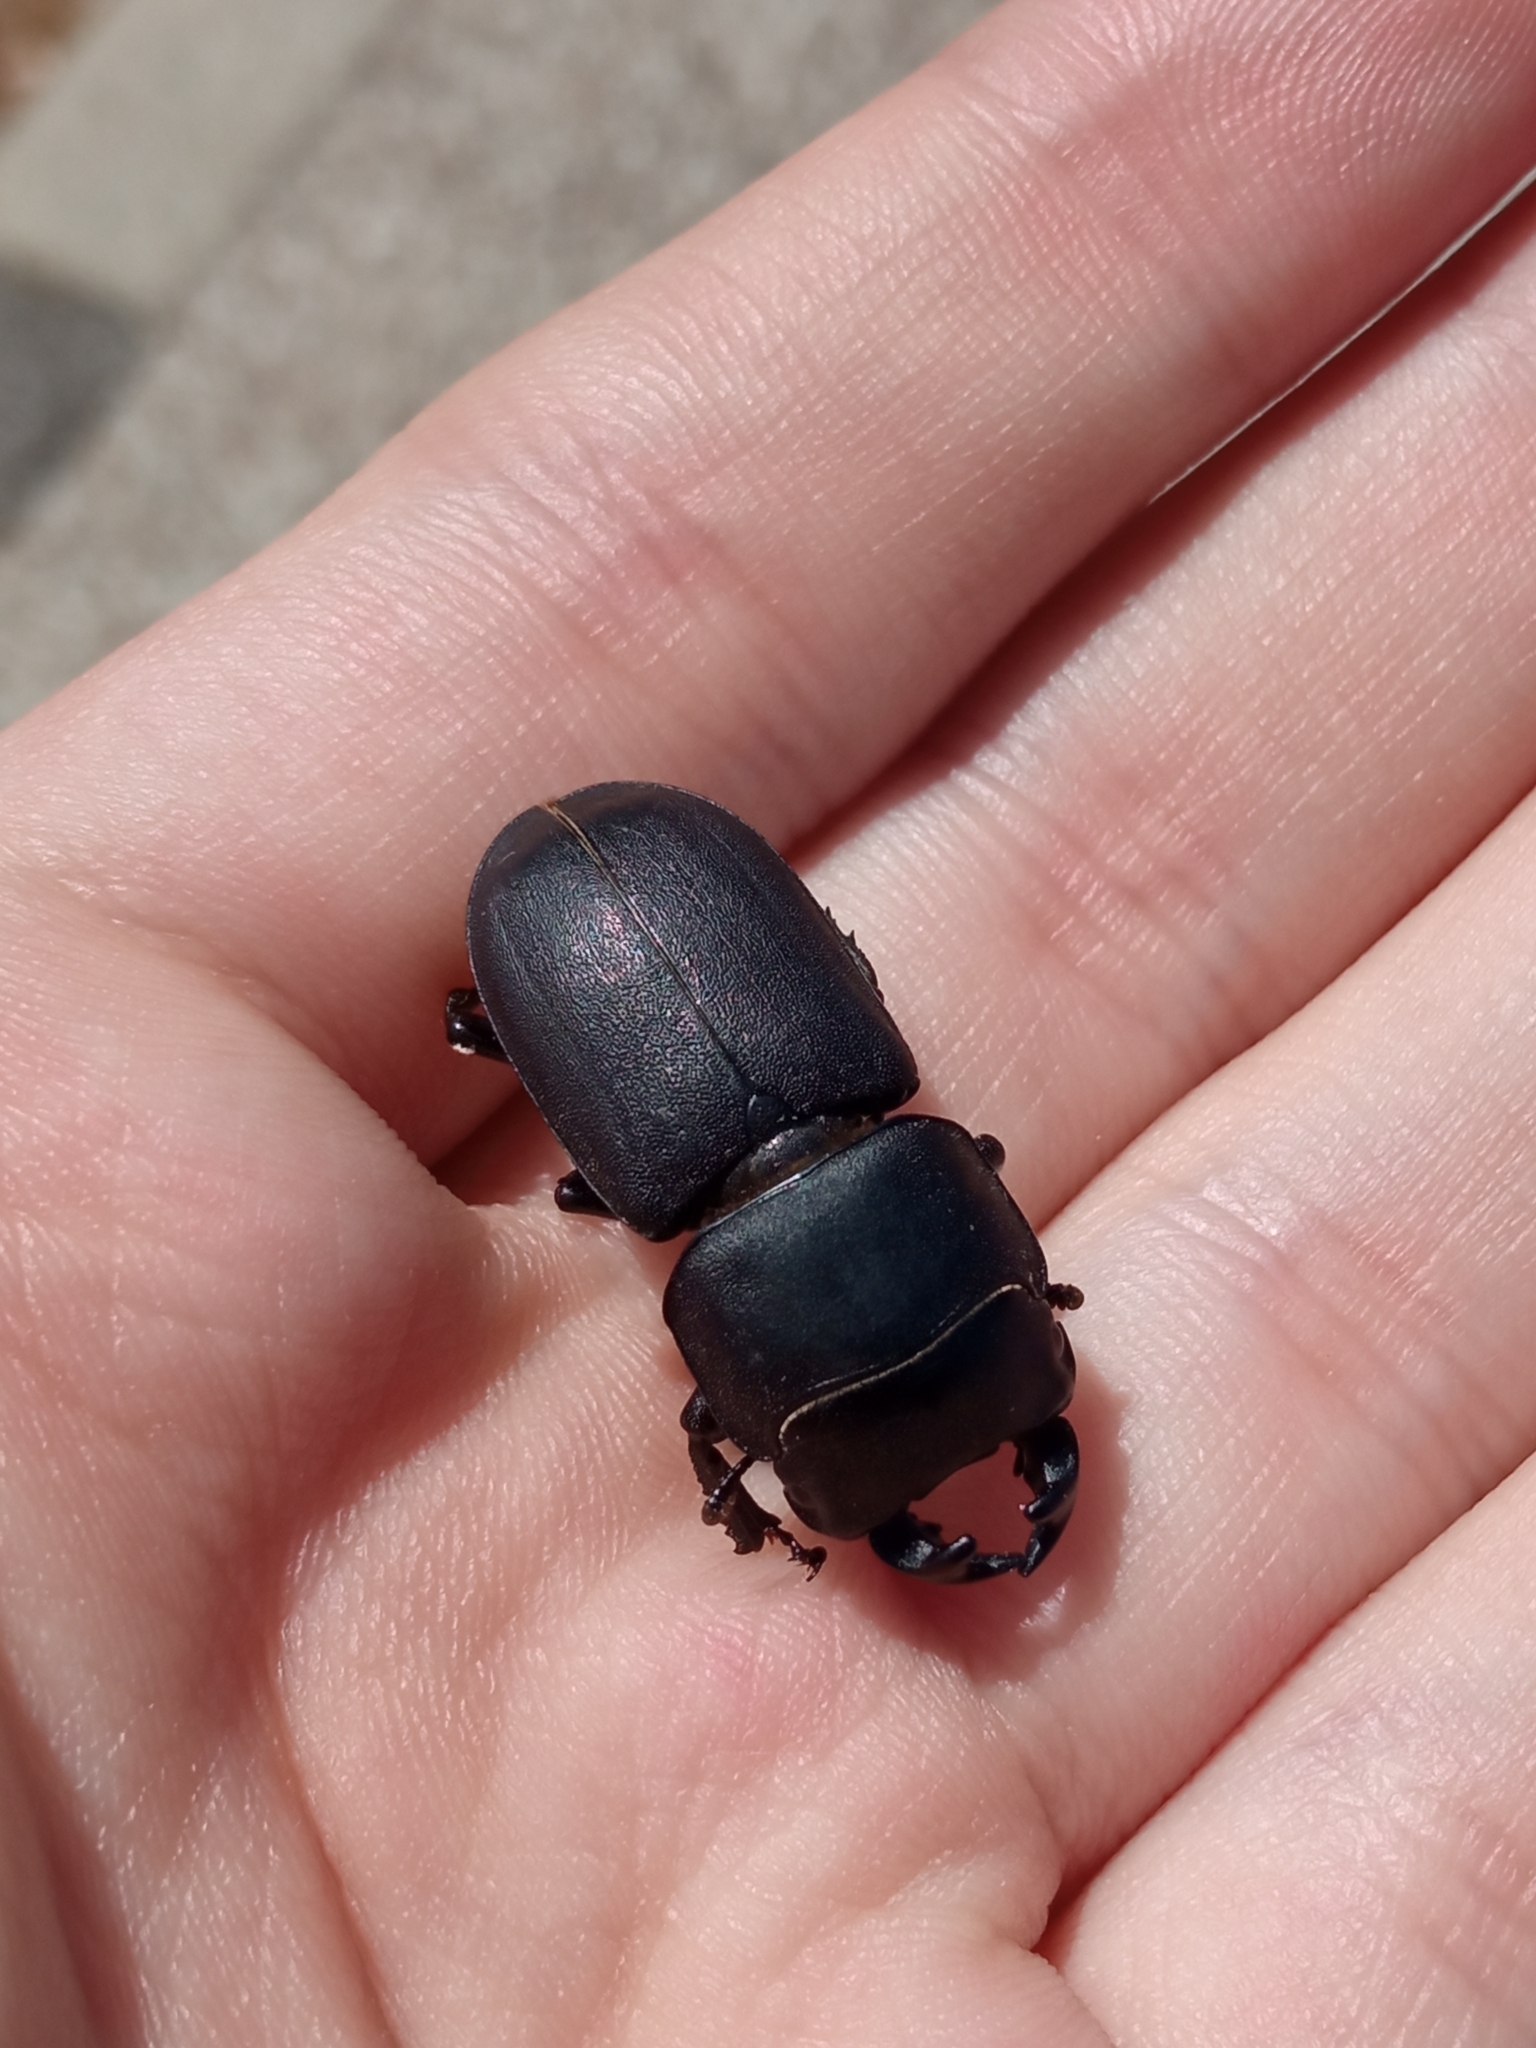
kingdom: Animalia
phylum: Arthropoda
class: Insecta
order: Coleoptera
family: Lucanidae
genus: Dorcus
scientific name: Dorcus parallelipipedus
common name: Lesser stag beetle
